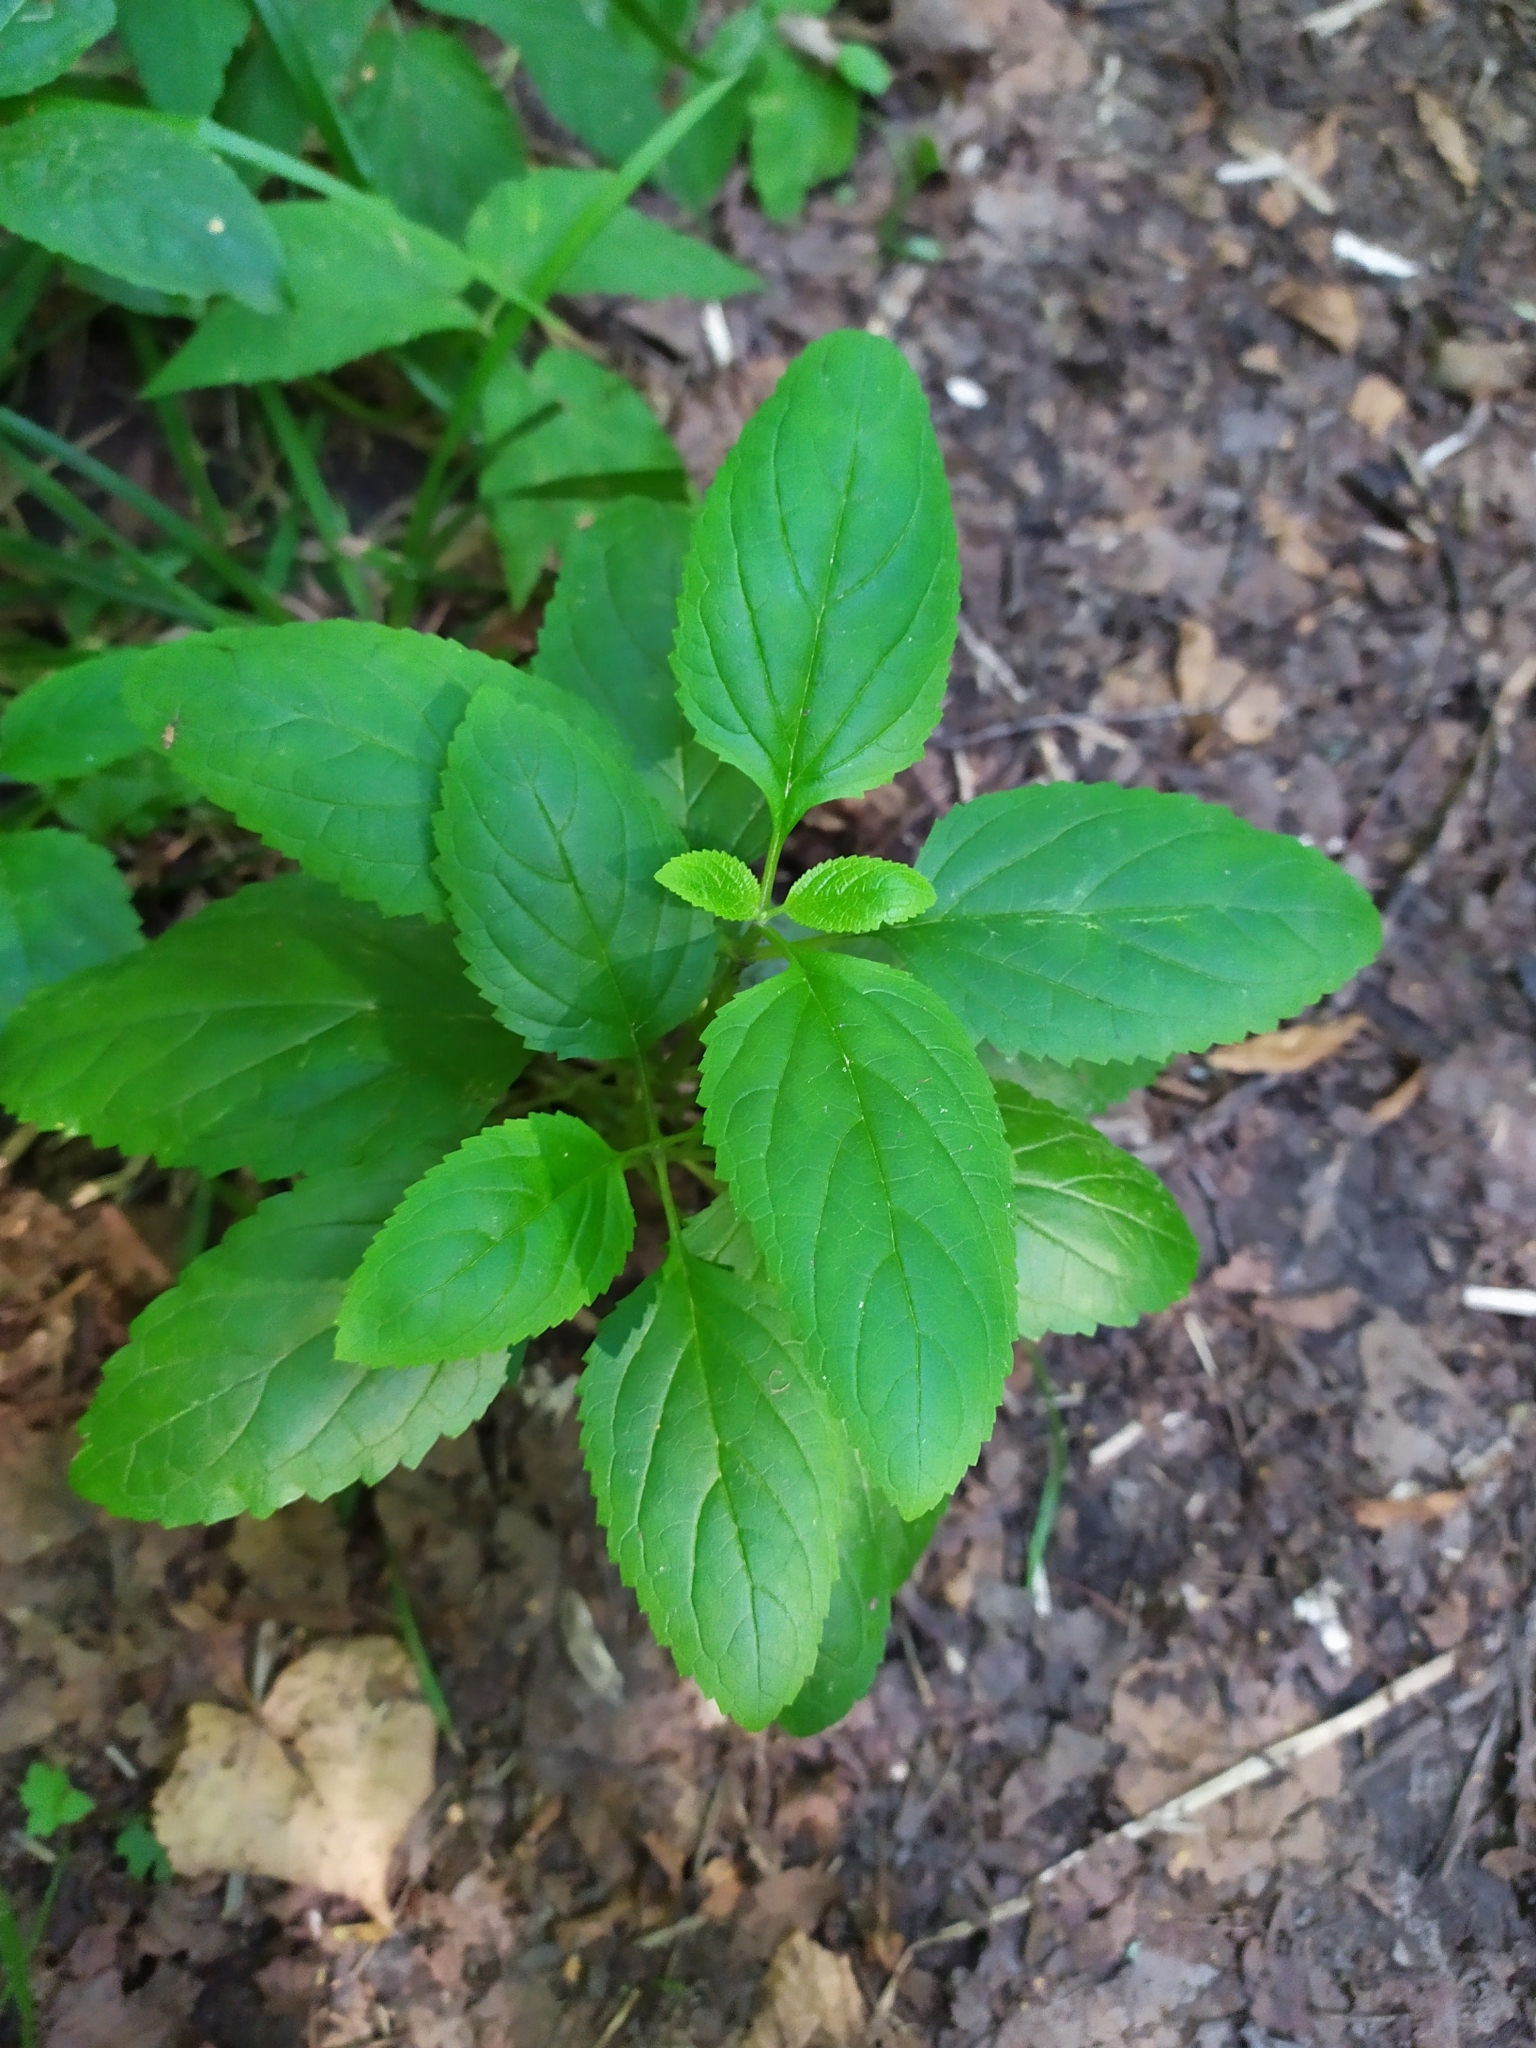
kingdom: Plantae
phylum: Tracheophyta
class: Magnoliopsida
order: Lamiales
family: Scrophulariaceae
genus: Scrophularia
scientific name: Scrophularia nodosa
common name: Common figwort
